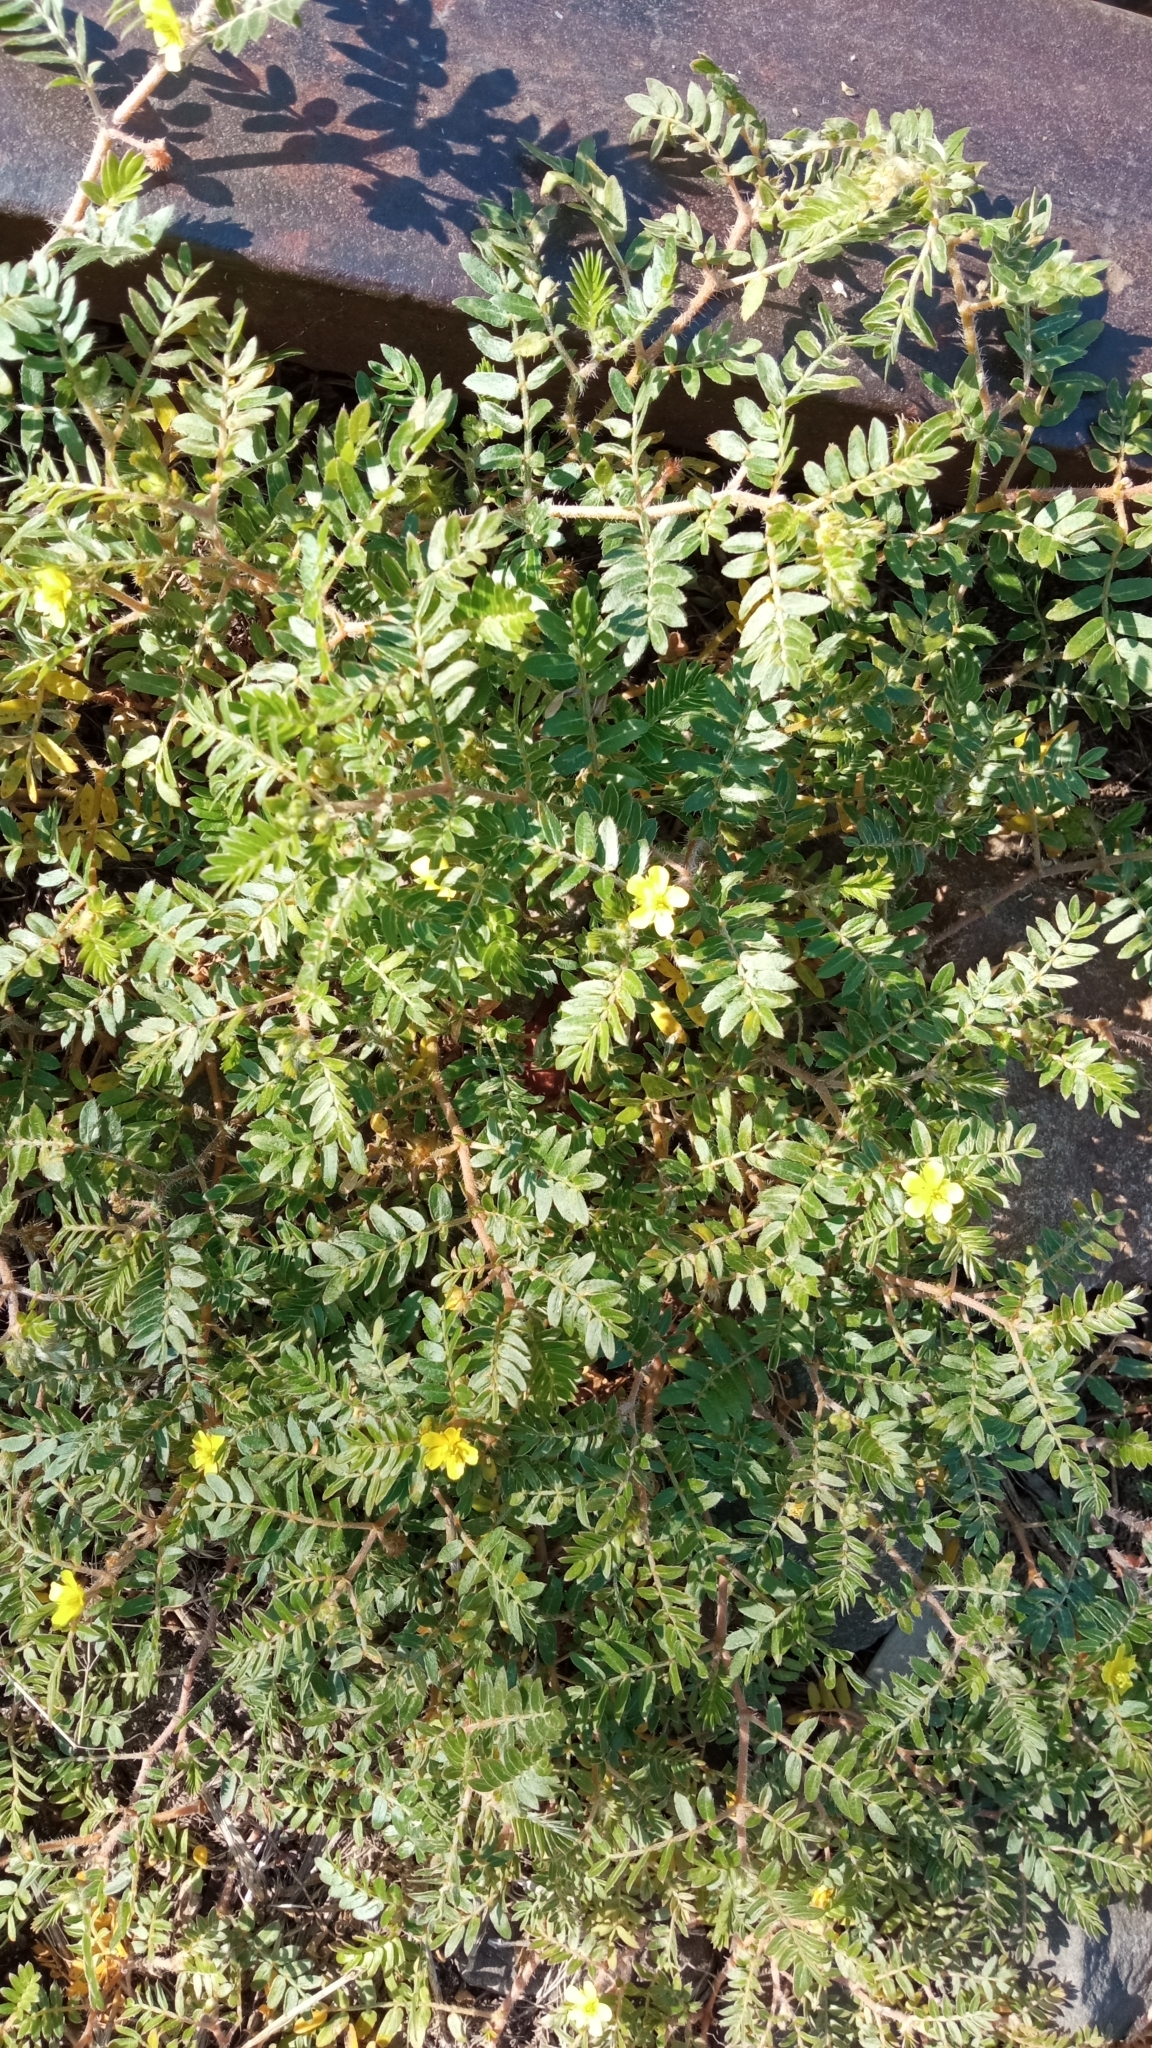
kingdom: Plantae
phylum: Tracheophyta
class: Magnoliopsida
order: Zygophyllales
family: Zygophyllaceae
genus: Tribulus
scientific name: Tribulus terrestris
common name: Puncturevine
